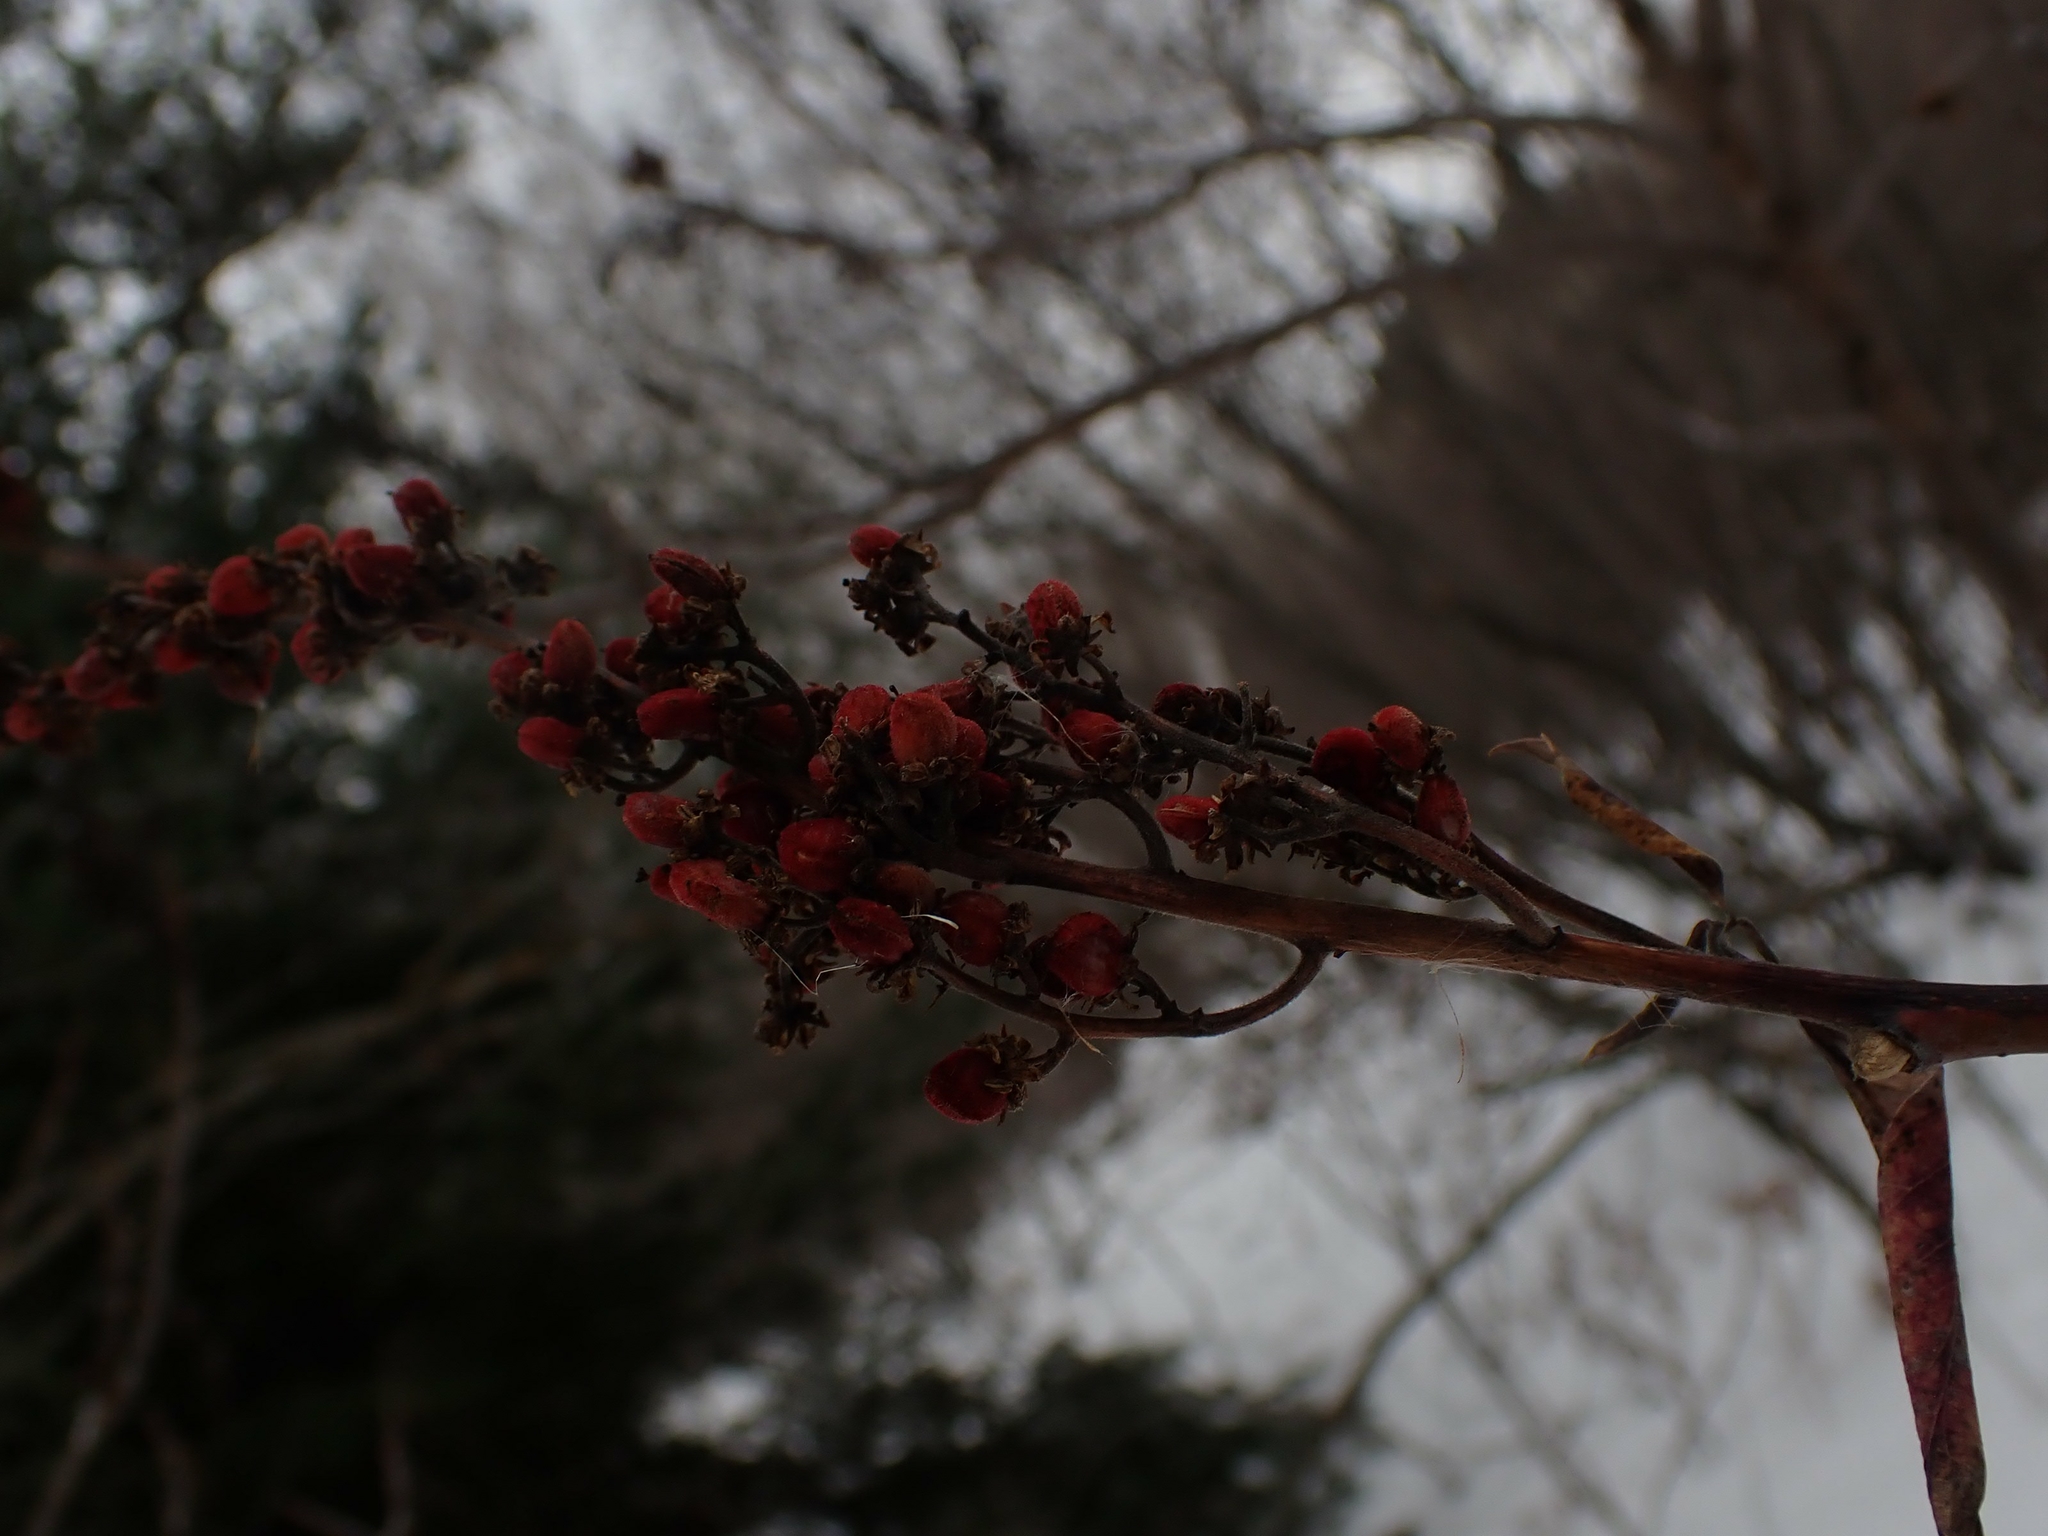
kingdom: Plantae
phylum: Tracheophyta
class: Magnoliopsida
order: Sapindales
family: Anacardiaceae
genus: Rhus
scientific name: Rhus glabra
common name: Scarlet sumac
